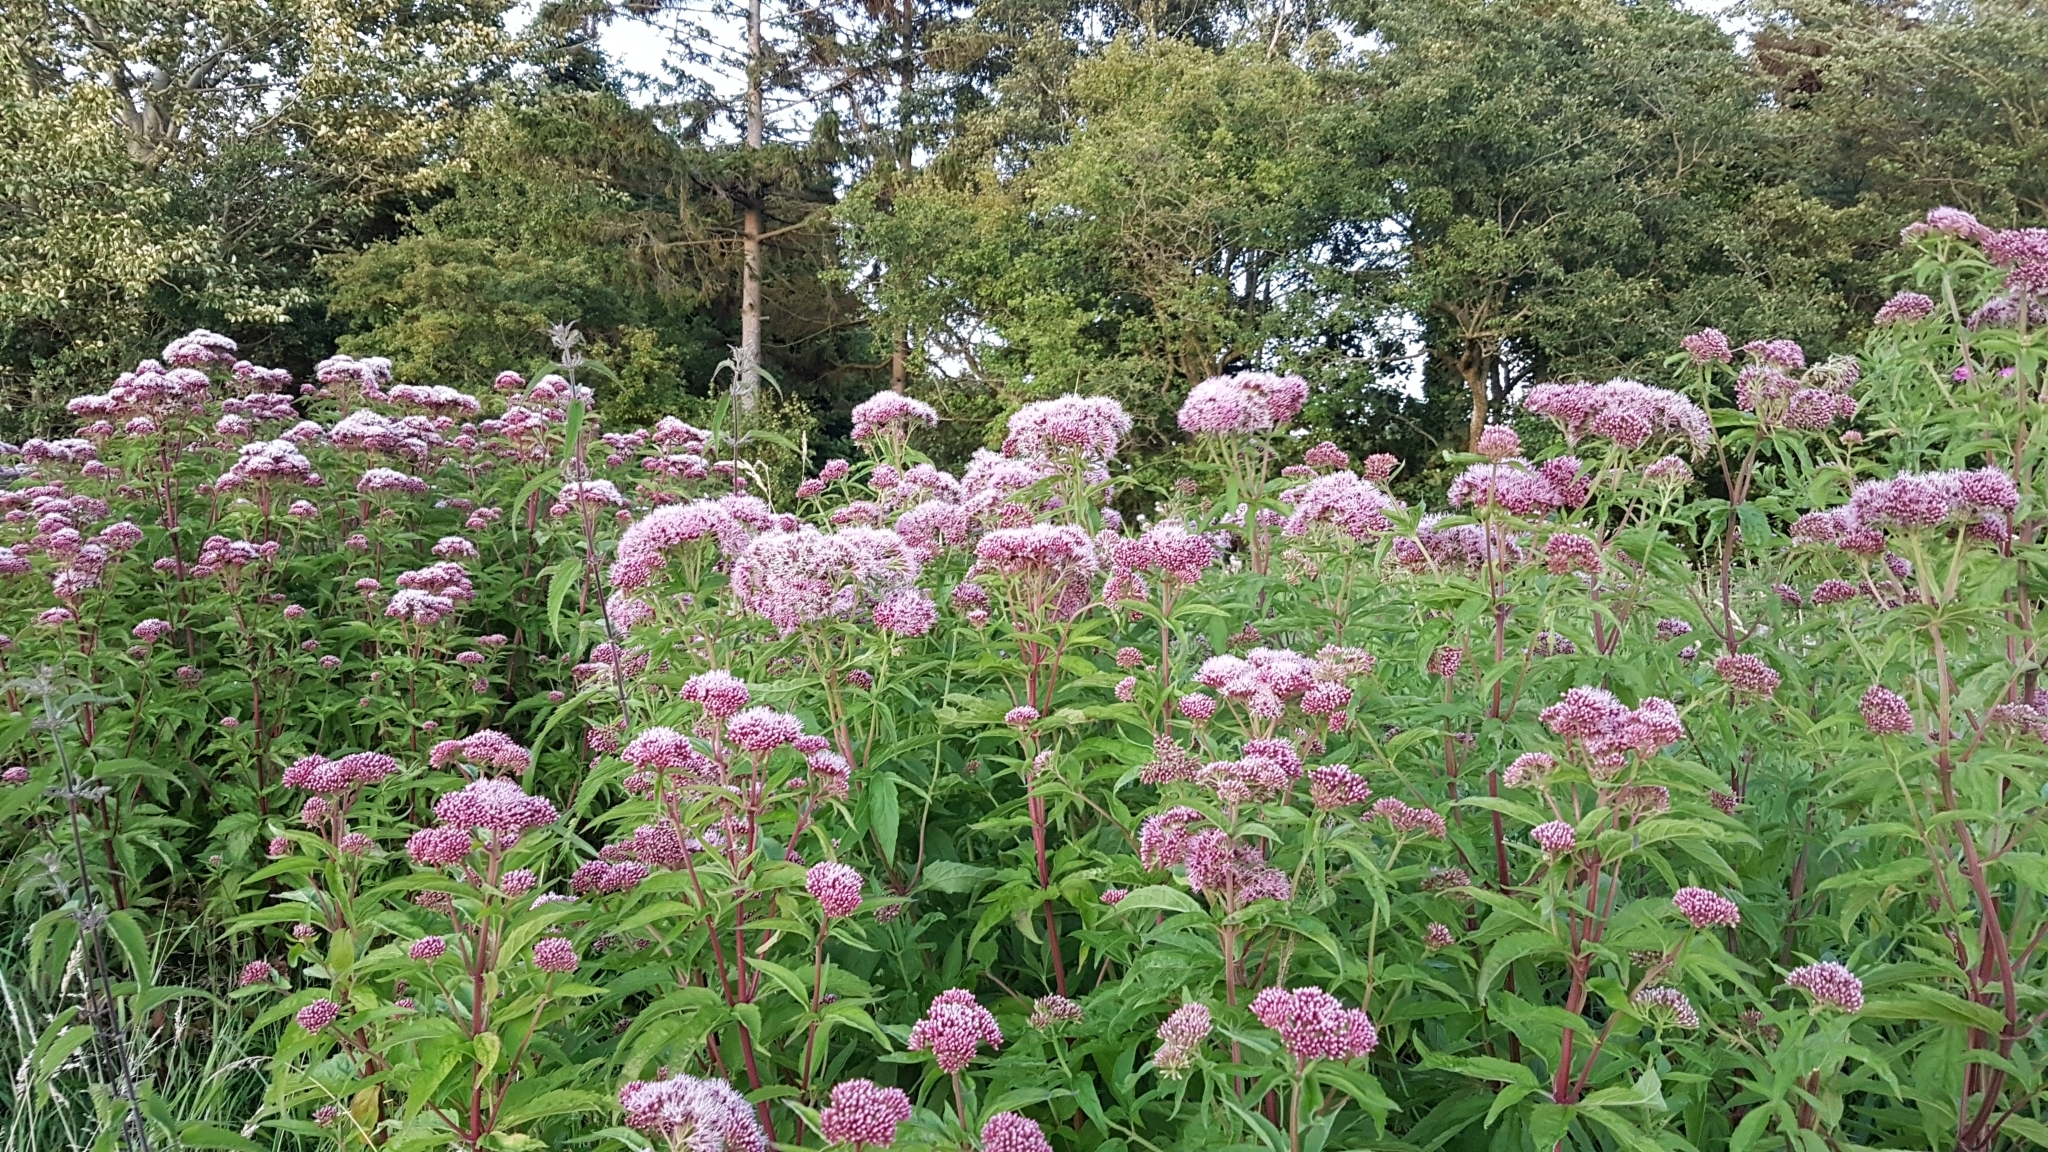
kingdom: Plantae
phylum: Tracheophyta
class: Magnoliopsida
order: Asterales
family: Asteraceae
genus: Eupatorium
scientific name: Eupatorium cannabinum
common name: Hemp-agrimony
